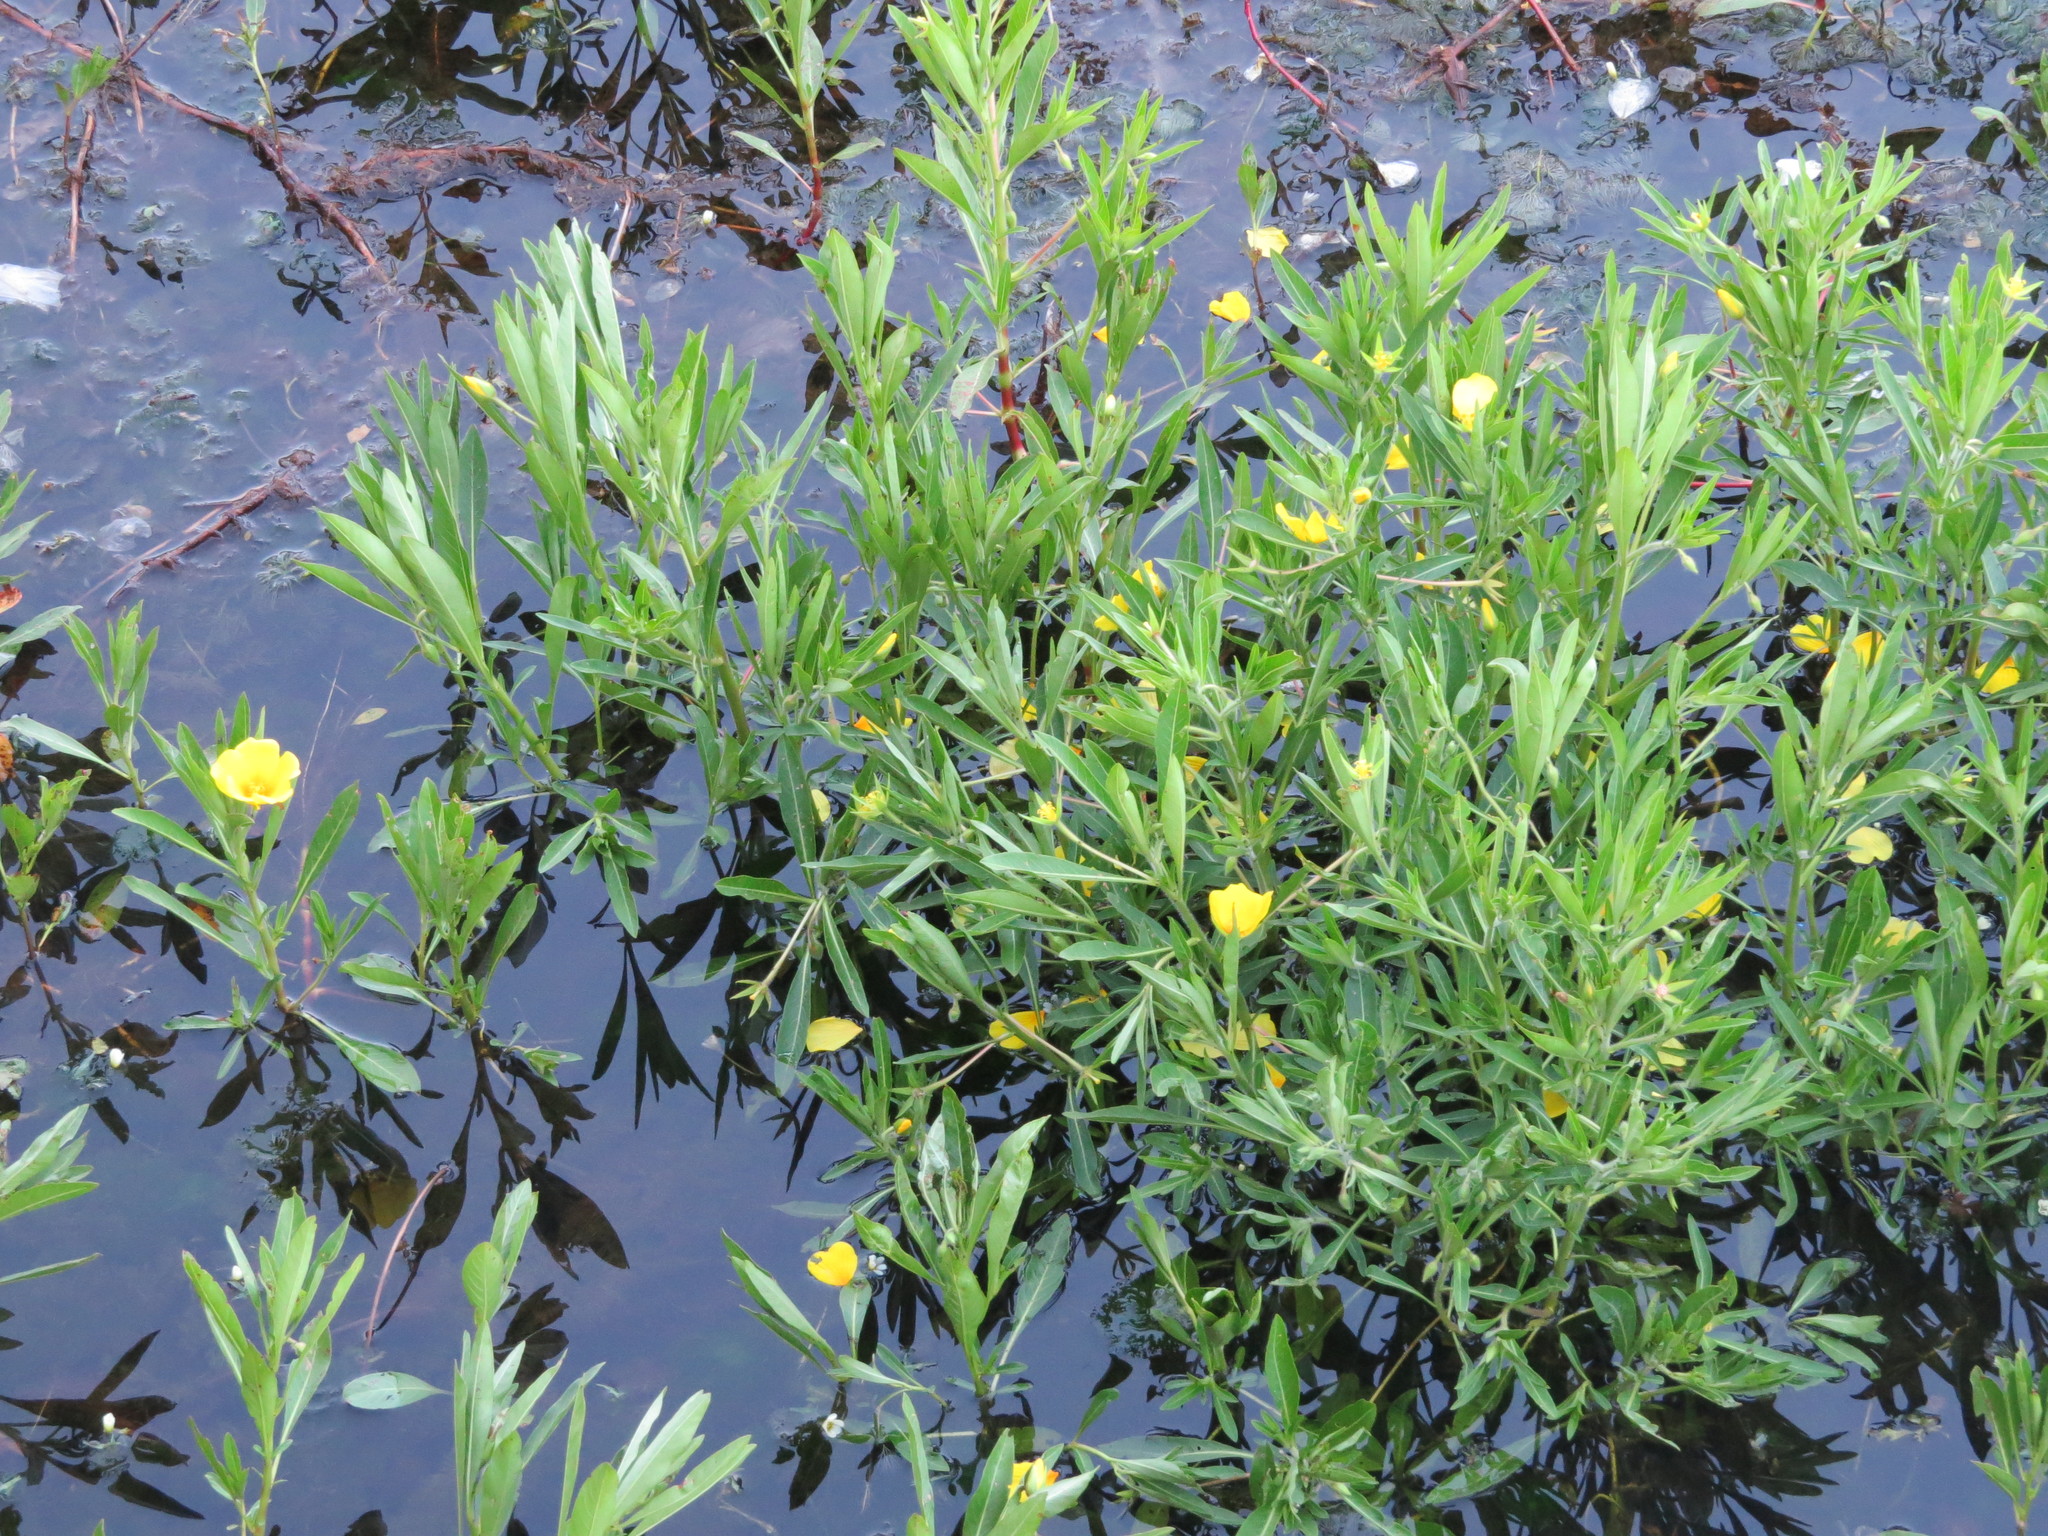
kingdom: Plantae
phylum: Tracheophyta
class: Magnoliopsida
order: Myrtales
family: Onagraceae
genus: Ludwigia
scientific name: Ludwigia peploides
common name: Floating primrose-willow
